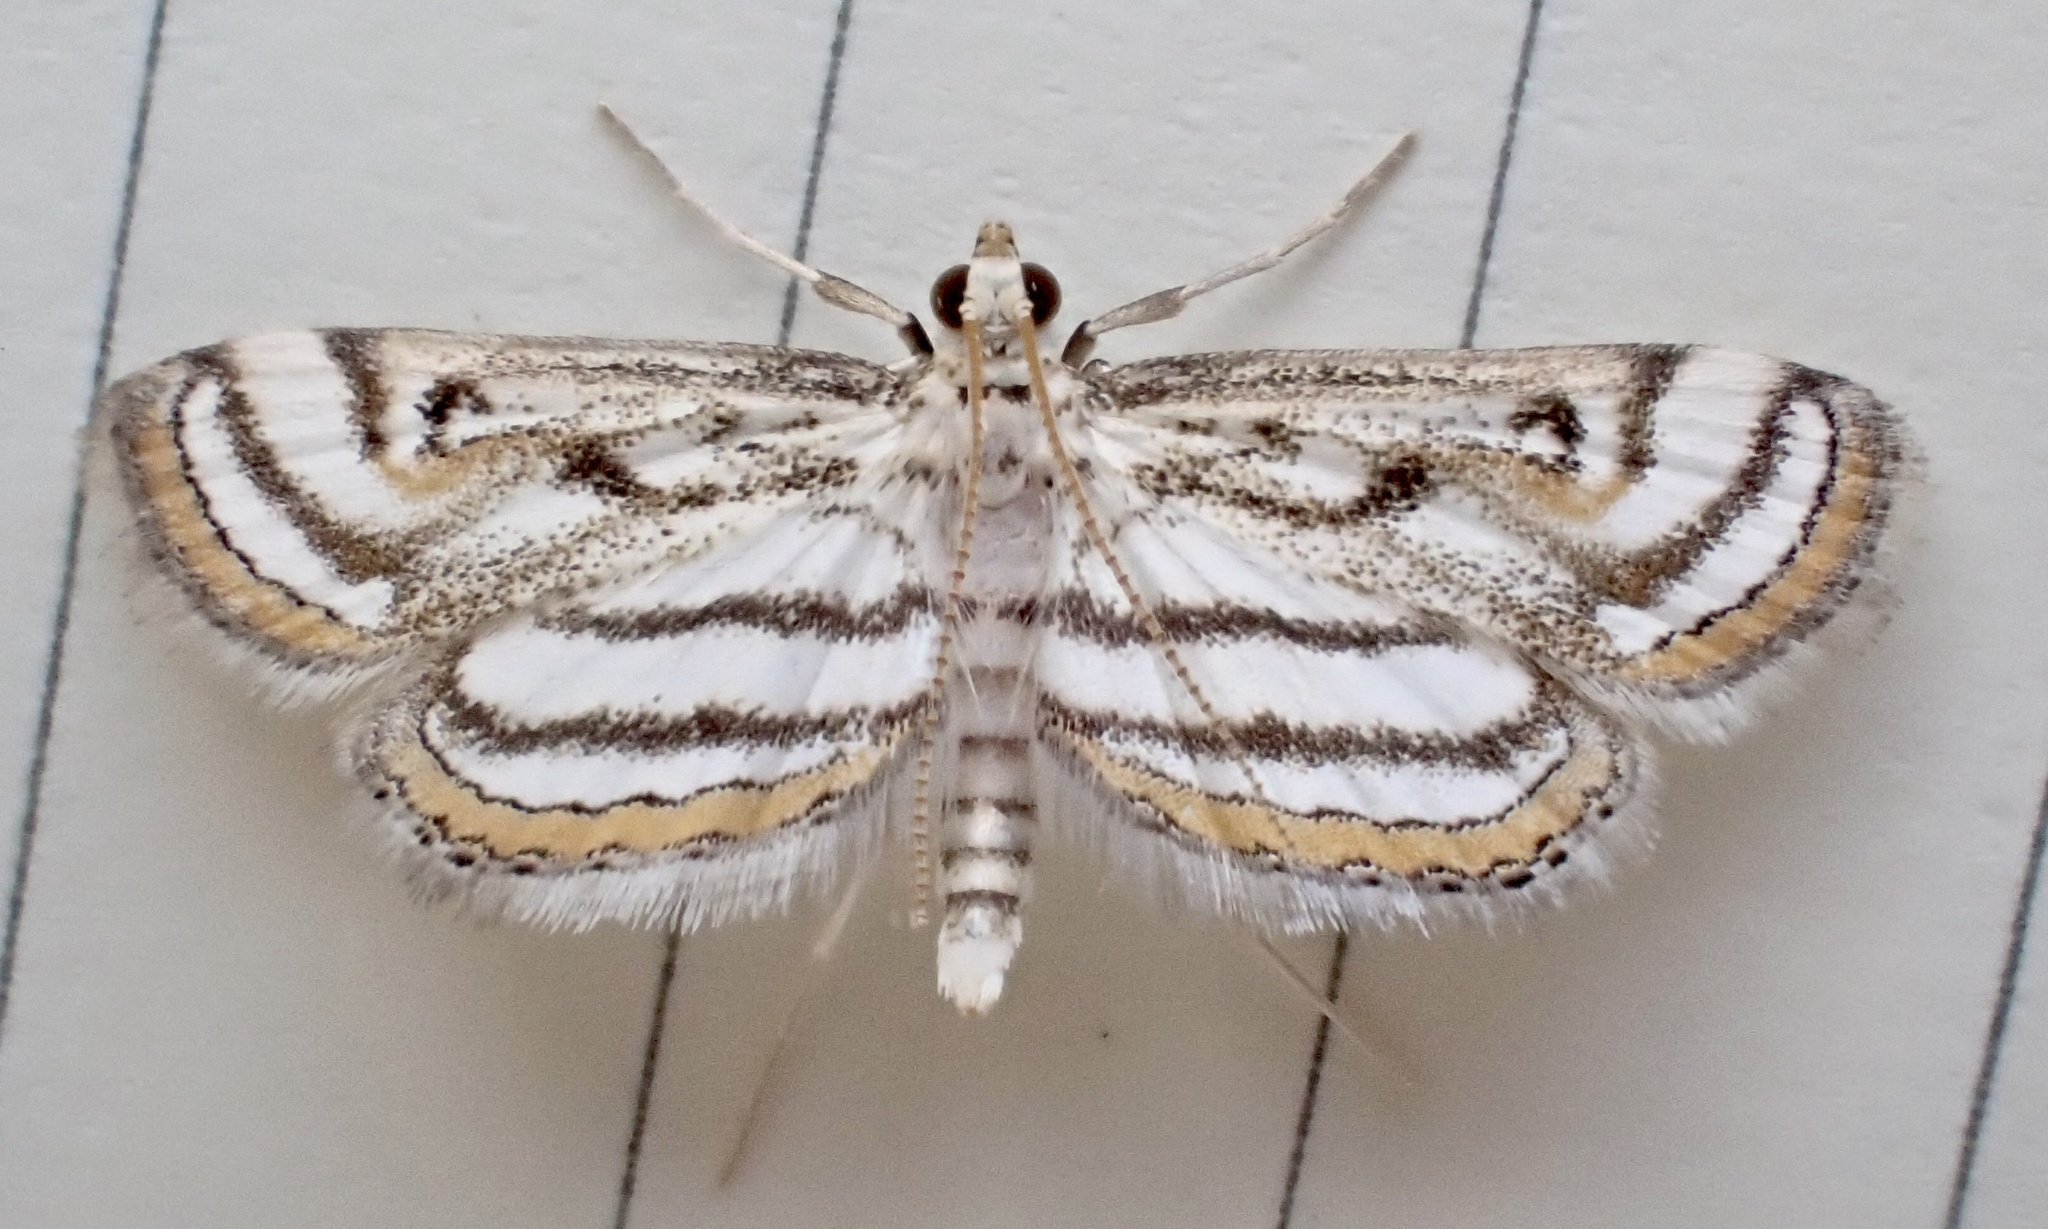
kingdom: Animalia
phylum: Arthropoda
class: Insecta
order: Lepidoptera
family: Crambidae
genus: Parapoynx
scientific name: Parapoynx badiusalis
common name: Chestnut-marked pondweed moth
